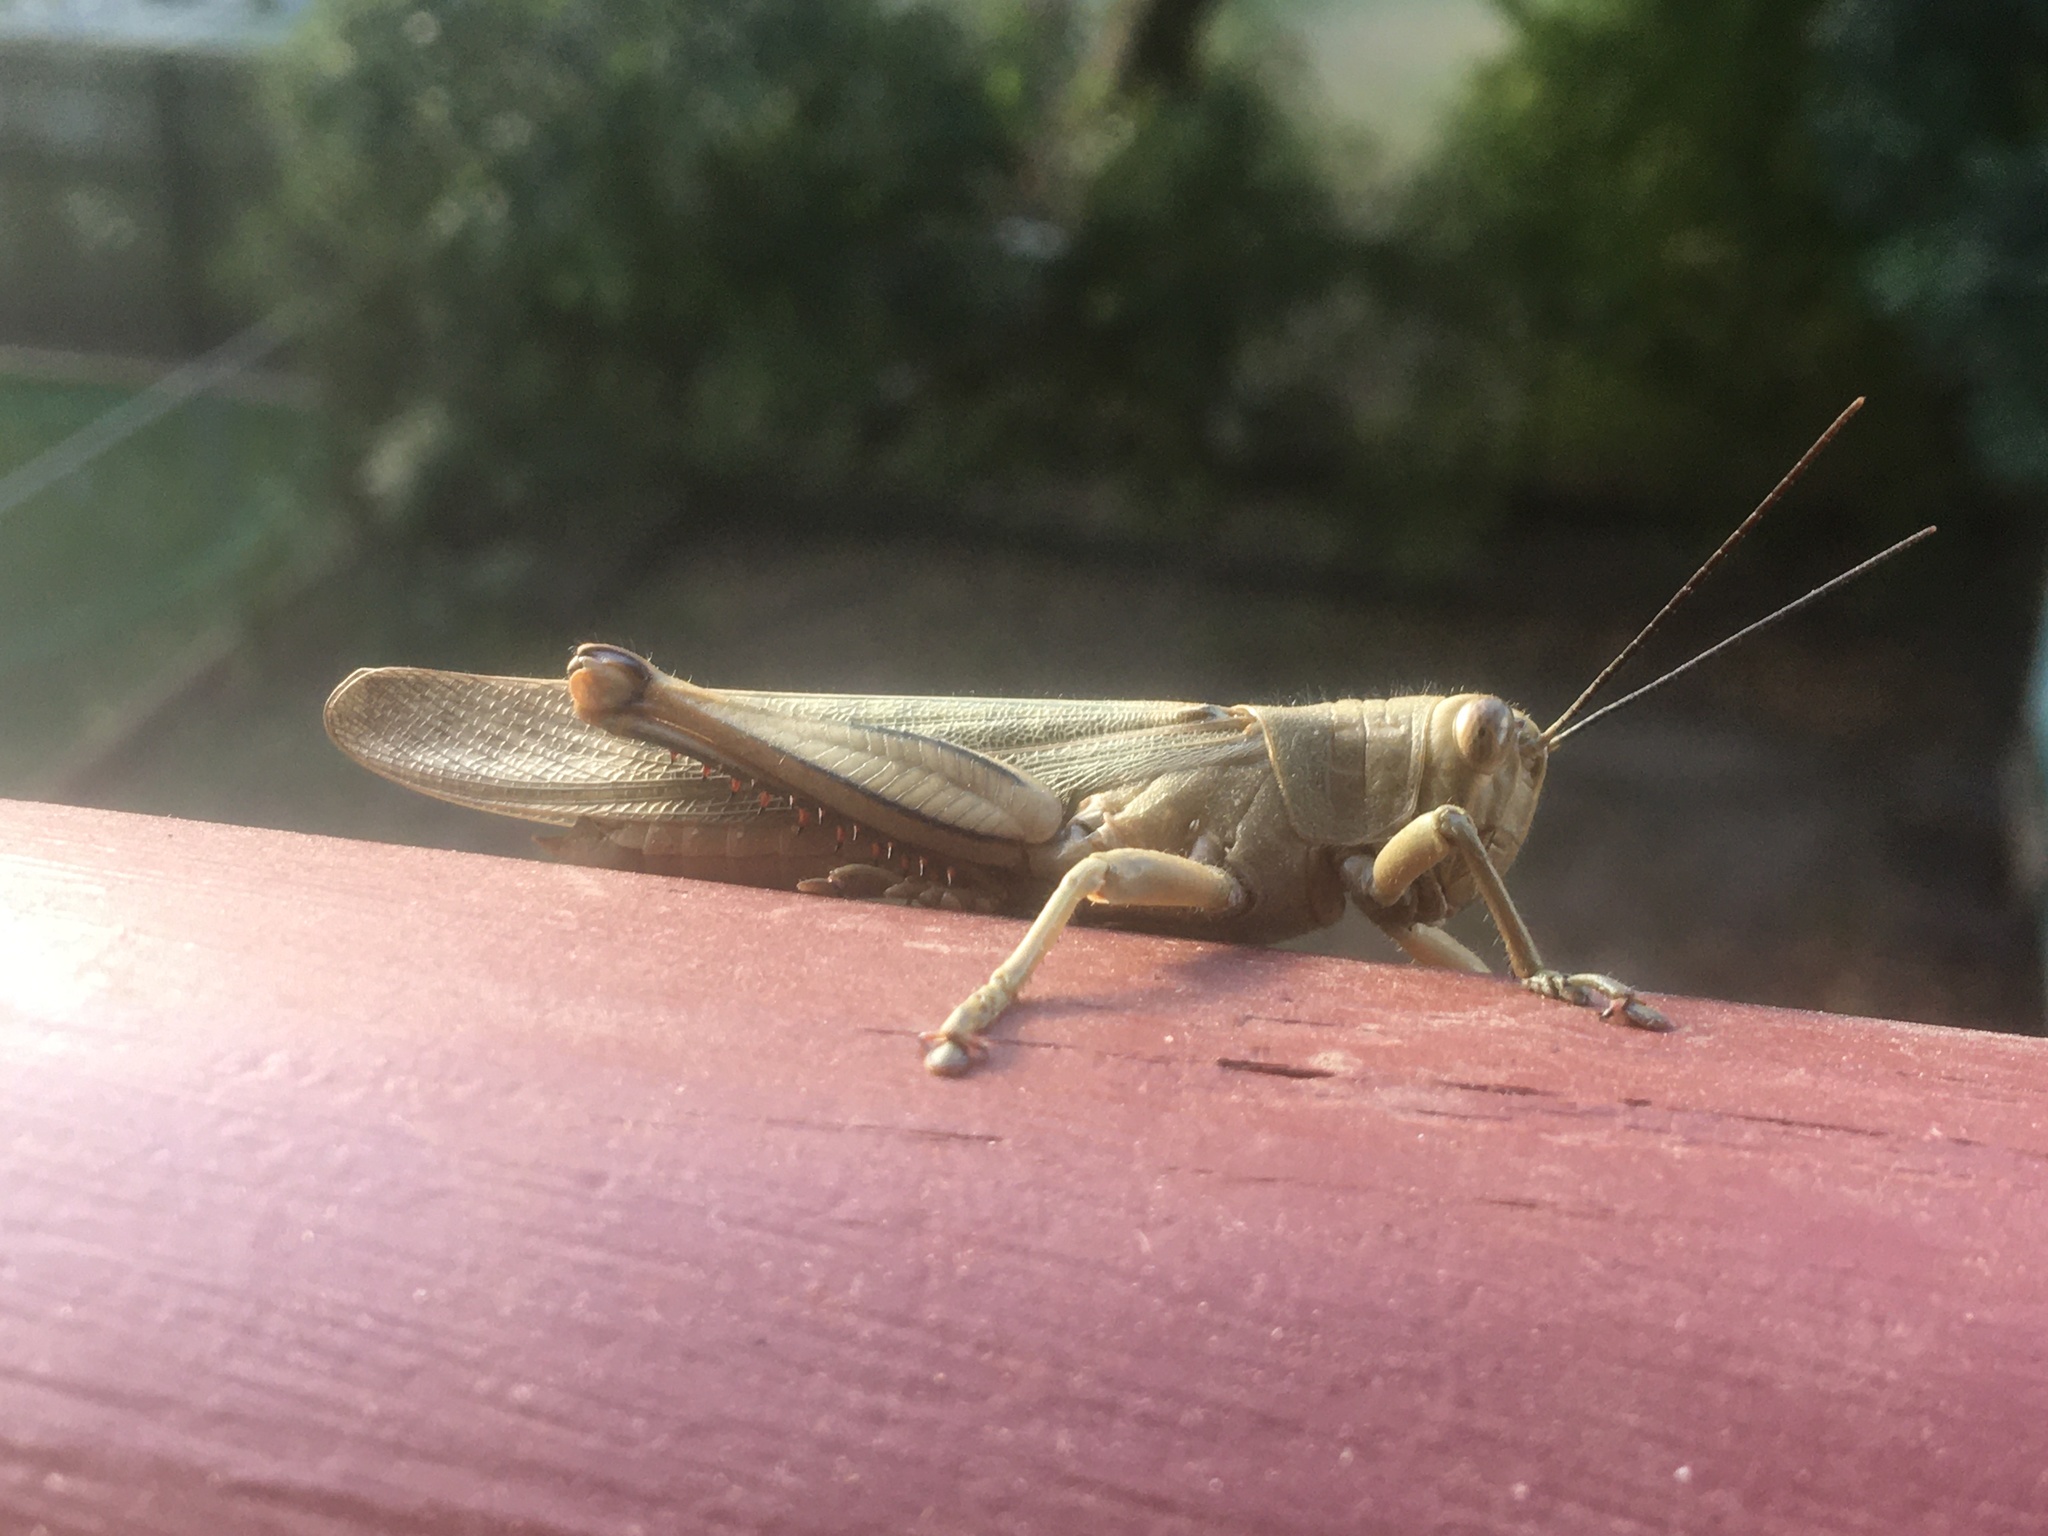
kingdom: Animalia
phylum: Arthropoda
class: Insecta
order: Orthoptera
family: Acrididae
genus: Valanga
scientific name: Valanga irregularis
